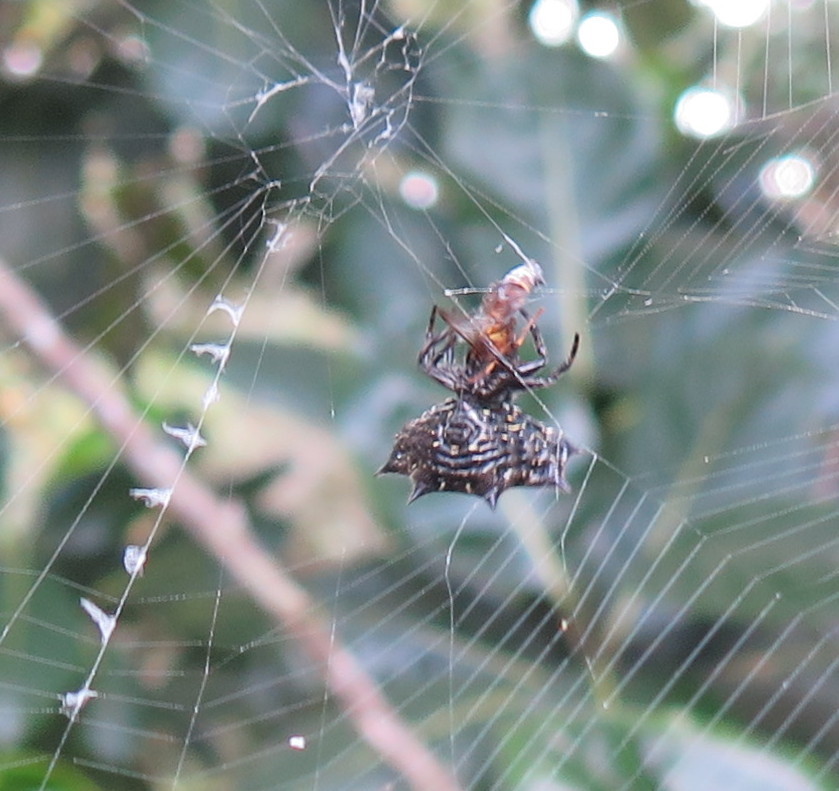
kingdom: Animalia
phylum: Arthropoda
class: Arachnida
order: Araneae
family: Araneidae
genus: Gasteracantha
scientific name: Gasteracantha cancriformis
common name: Orb weavers
